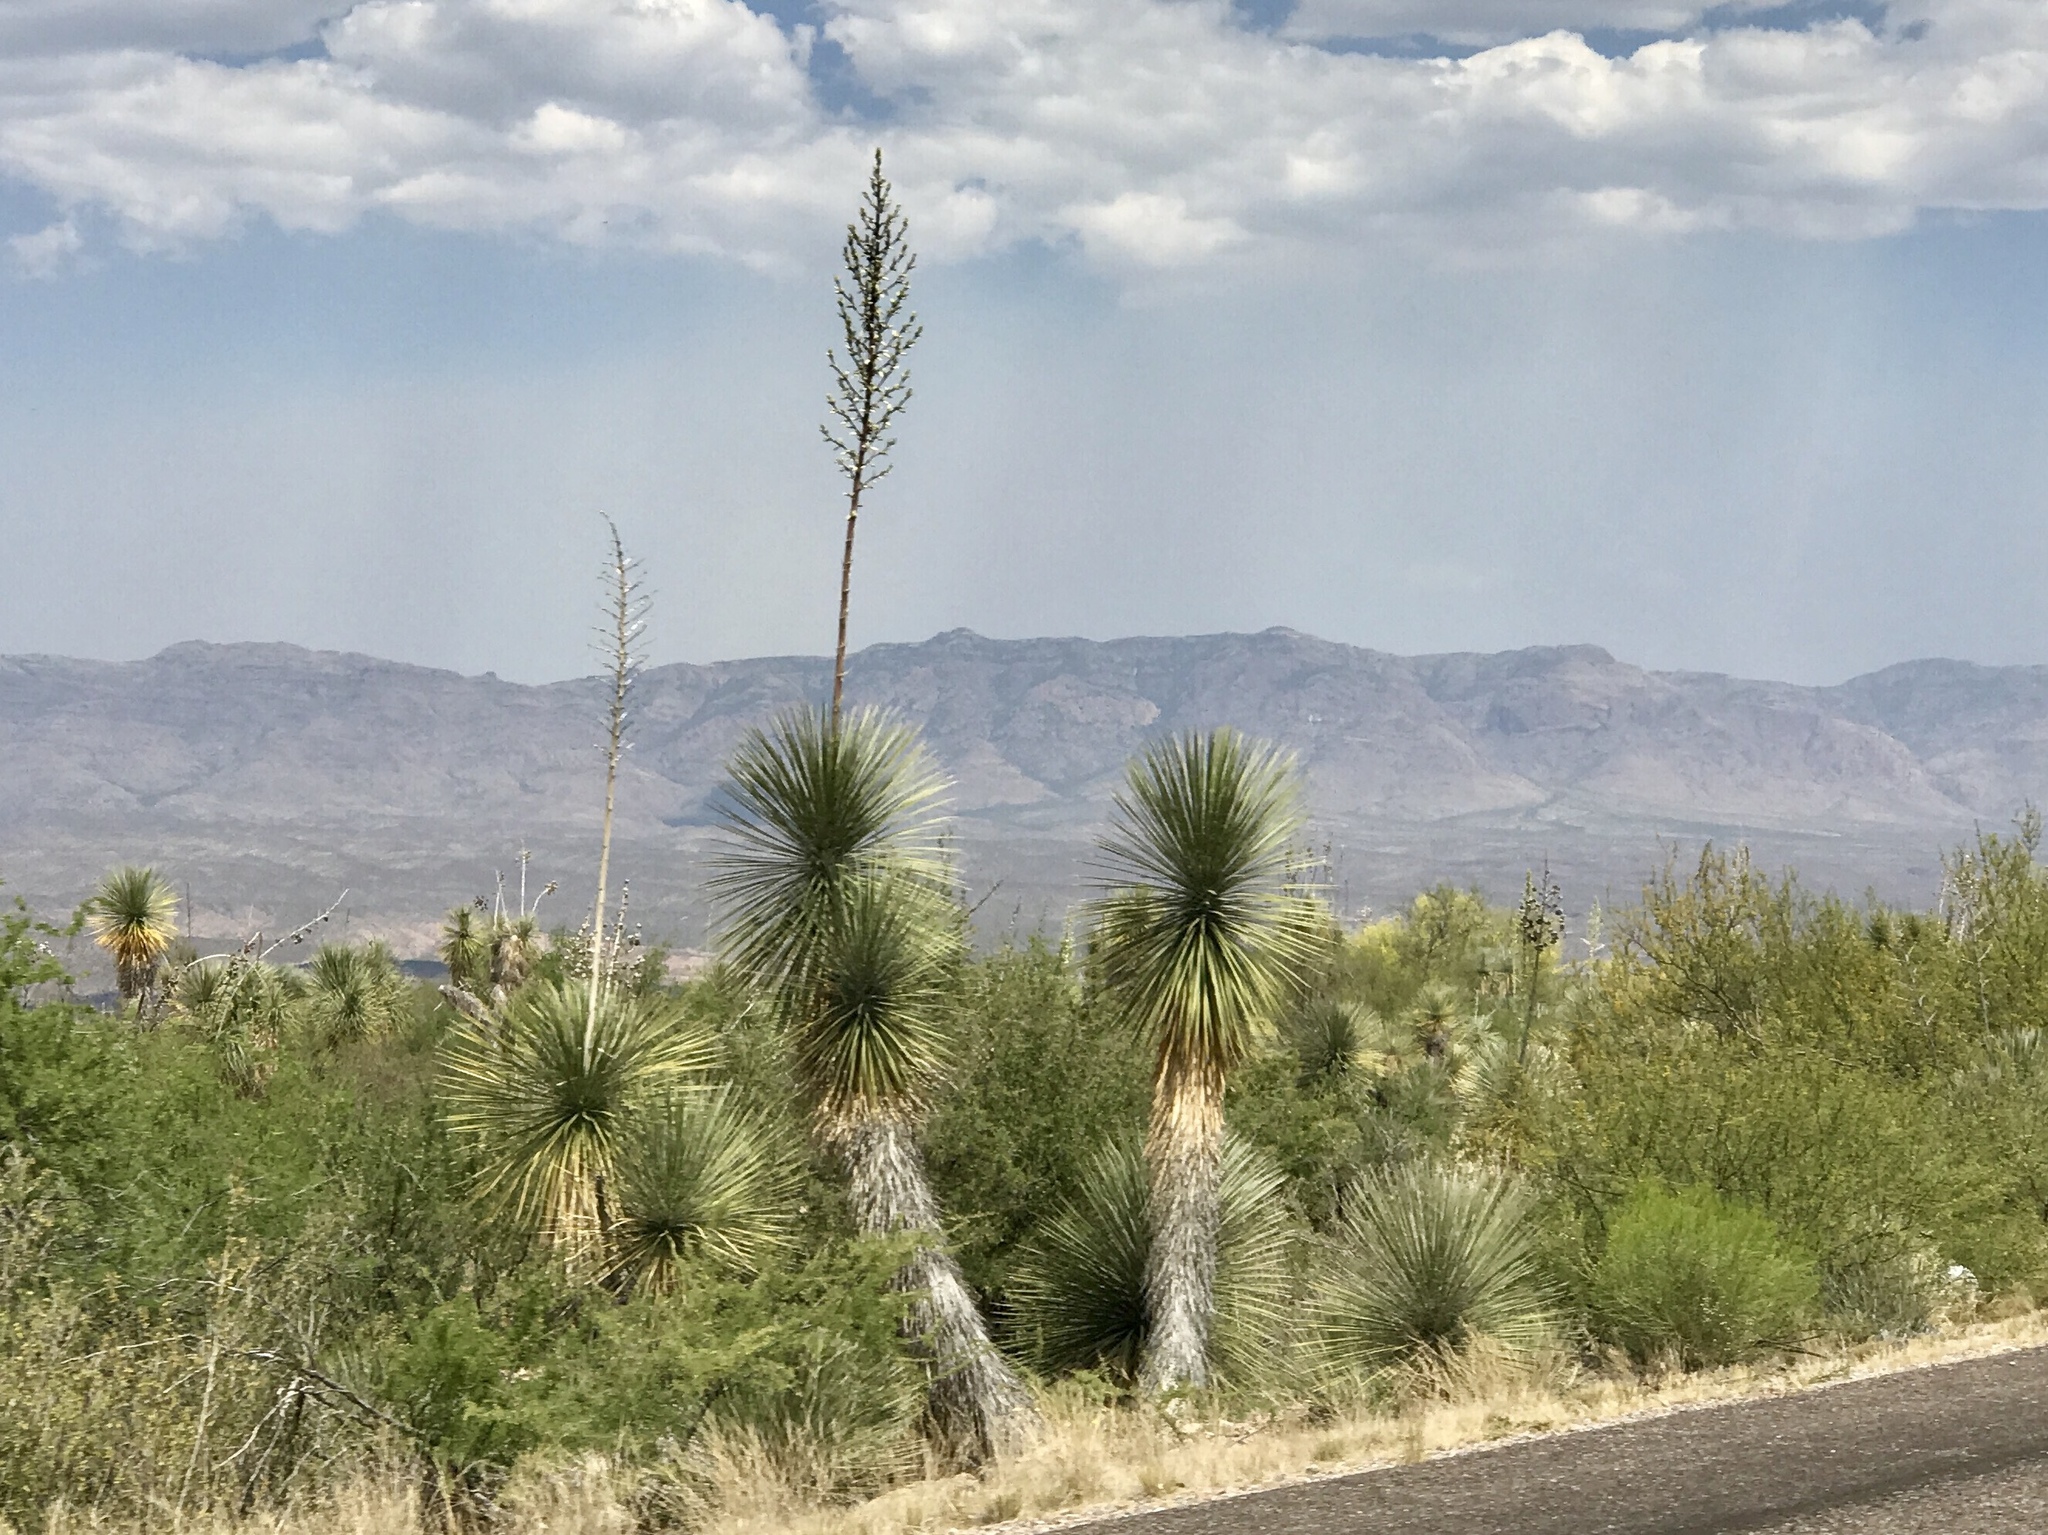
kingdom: Plantae
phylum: Tracheophyta
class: Liliopsida
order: Asparagales
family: Asparagaceae
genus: Yucca
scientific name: Yucca elata
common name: Palmella
